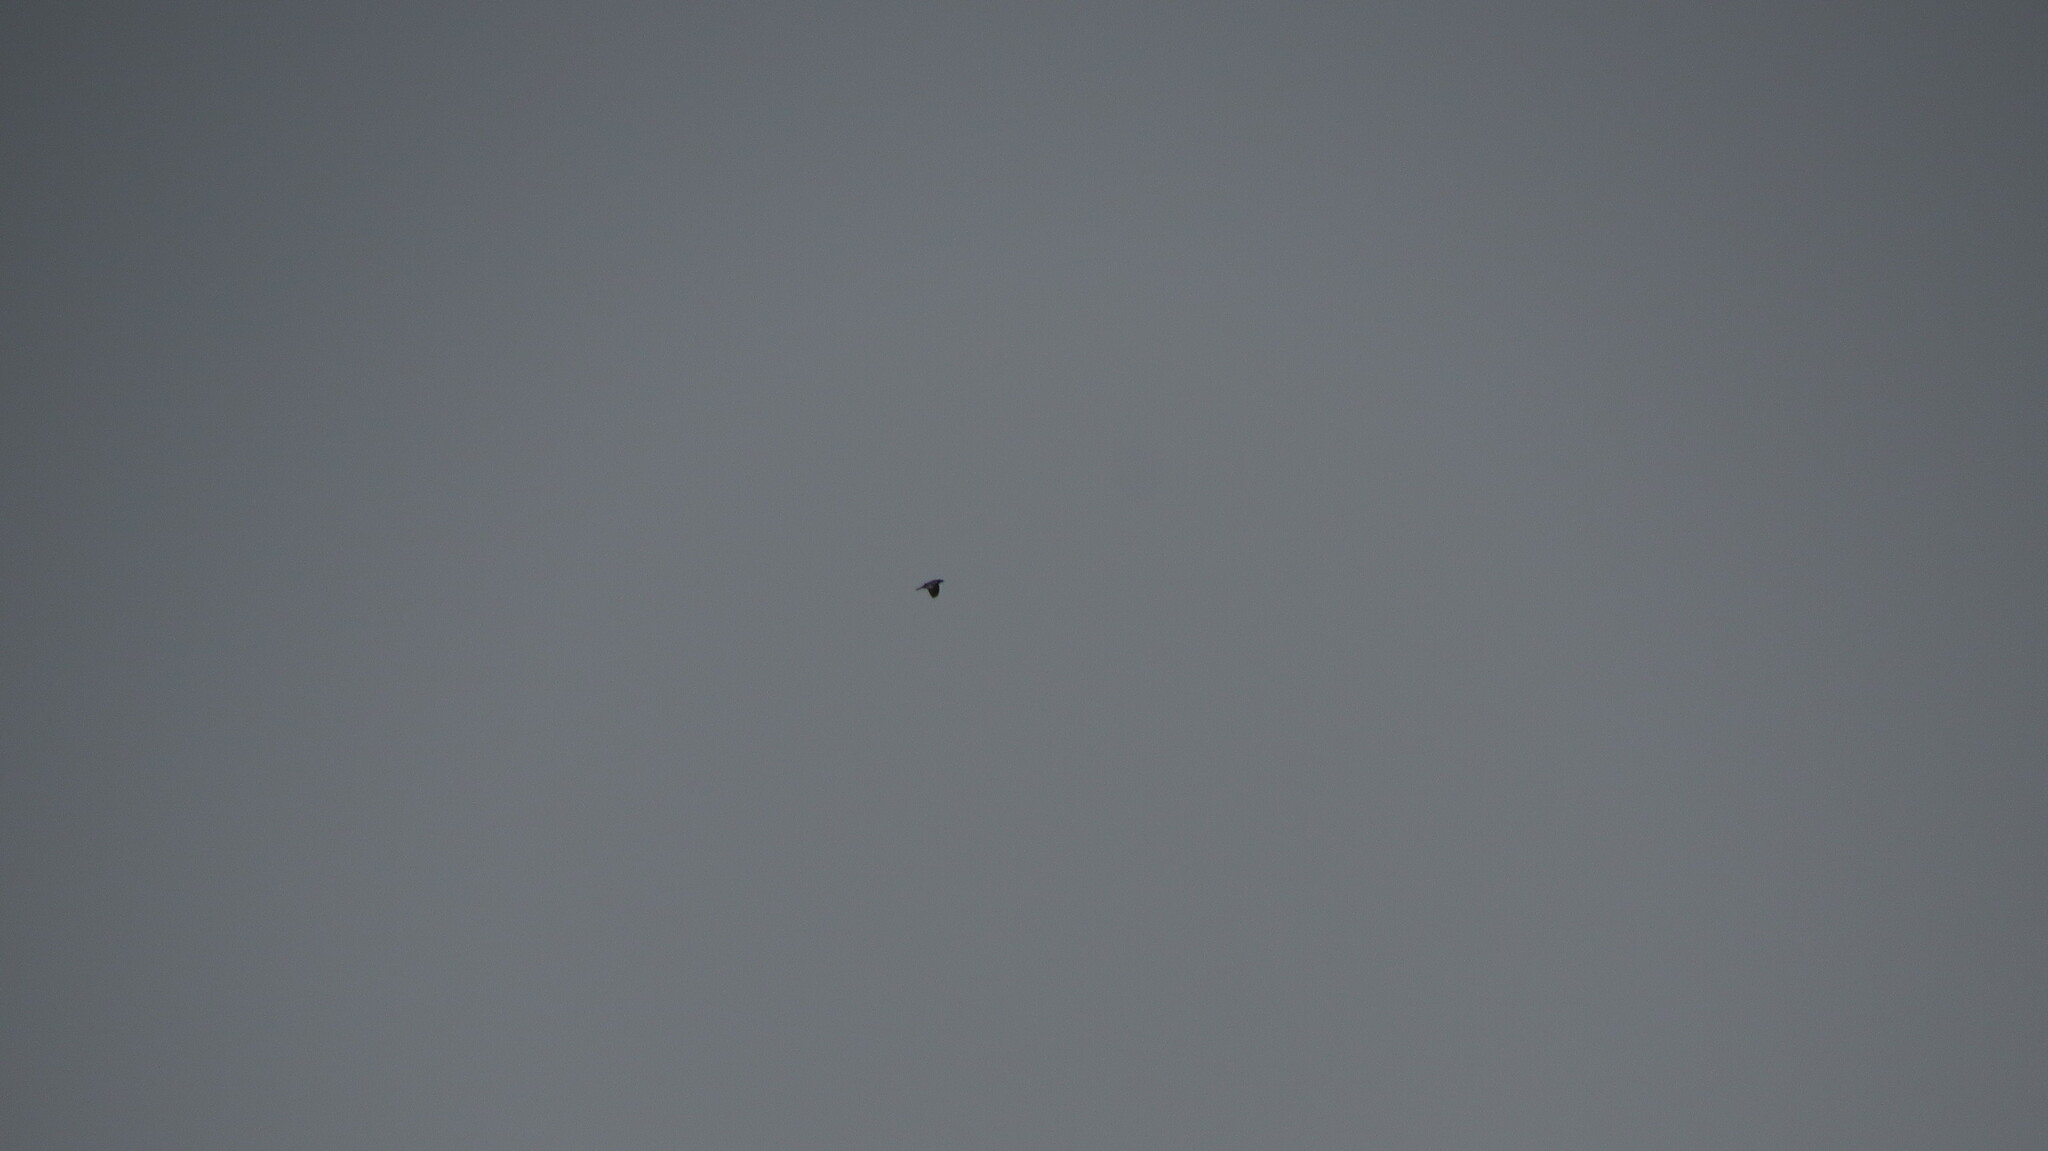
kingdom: Animalia
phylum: Chordata
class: Aves
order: Accipitriformes
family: Accipitridae
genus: Ictinia
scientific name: Ictinia mississippiensis
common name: Mississippi kite
